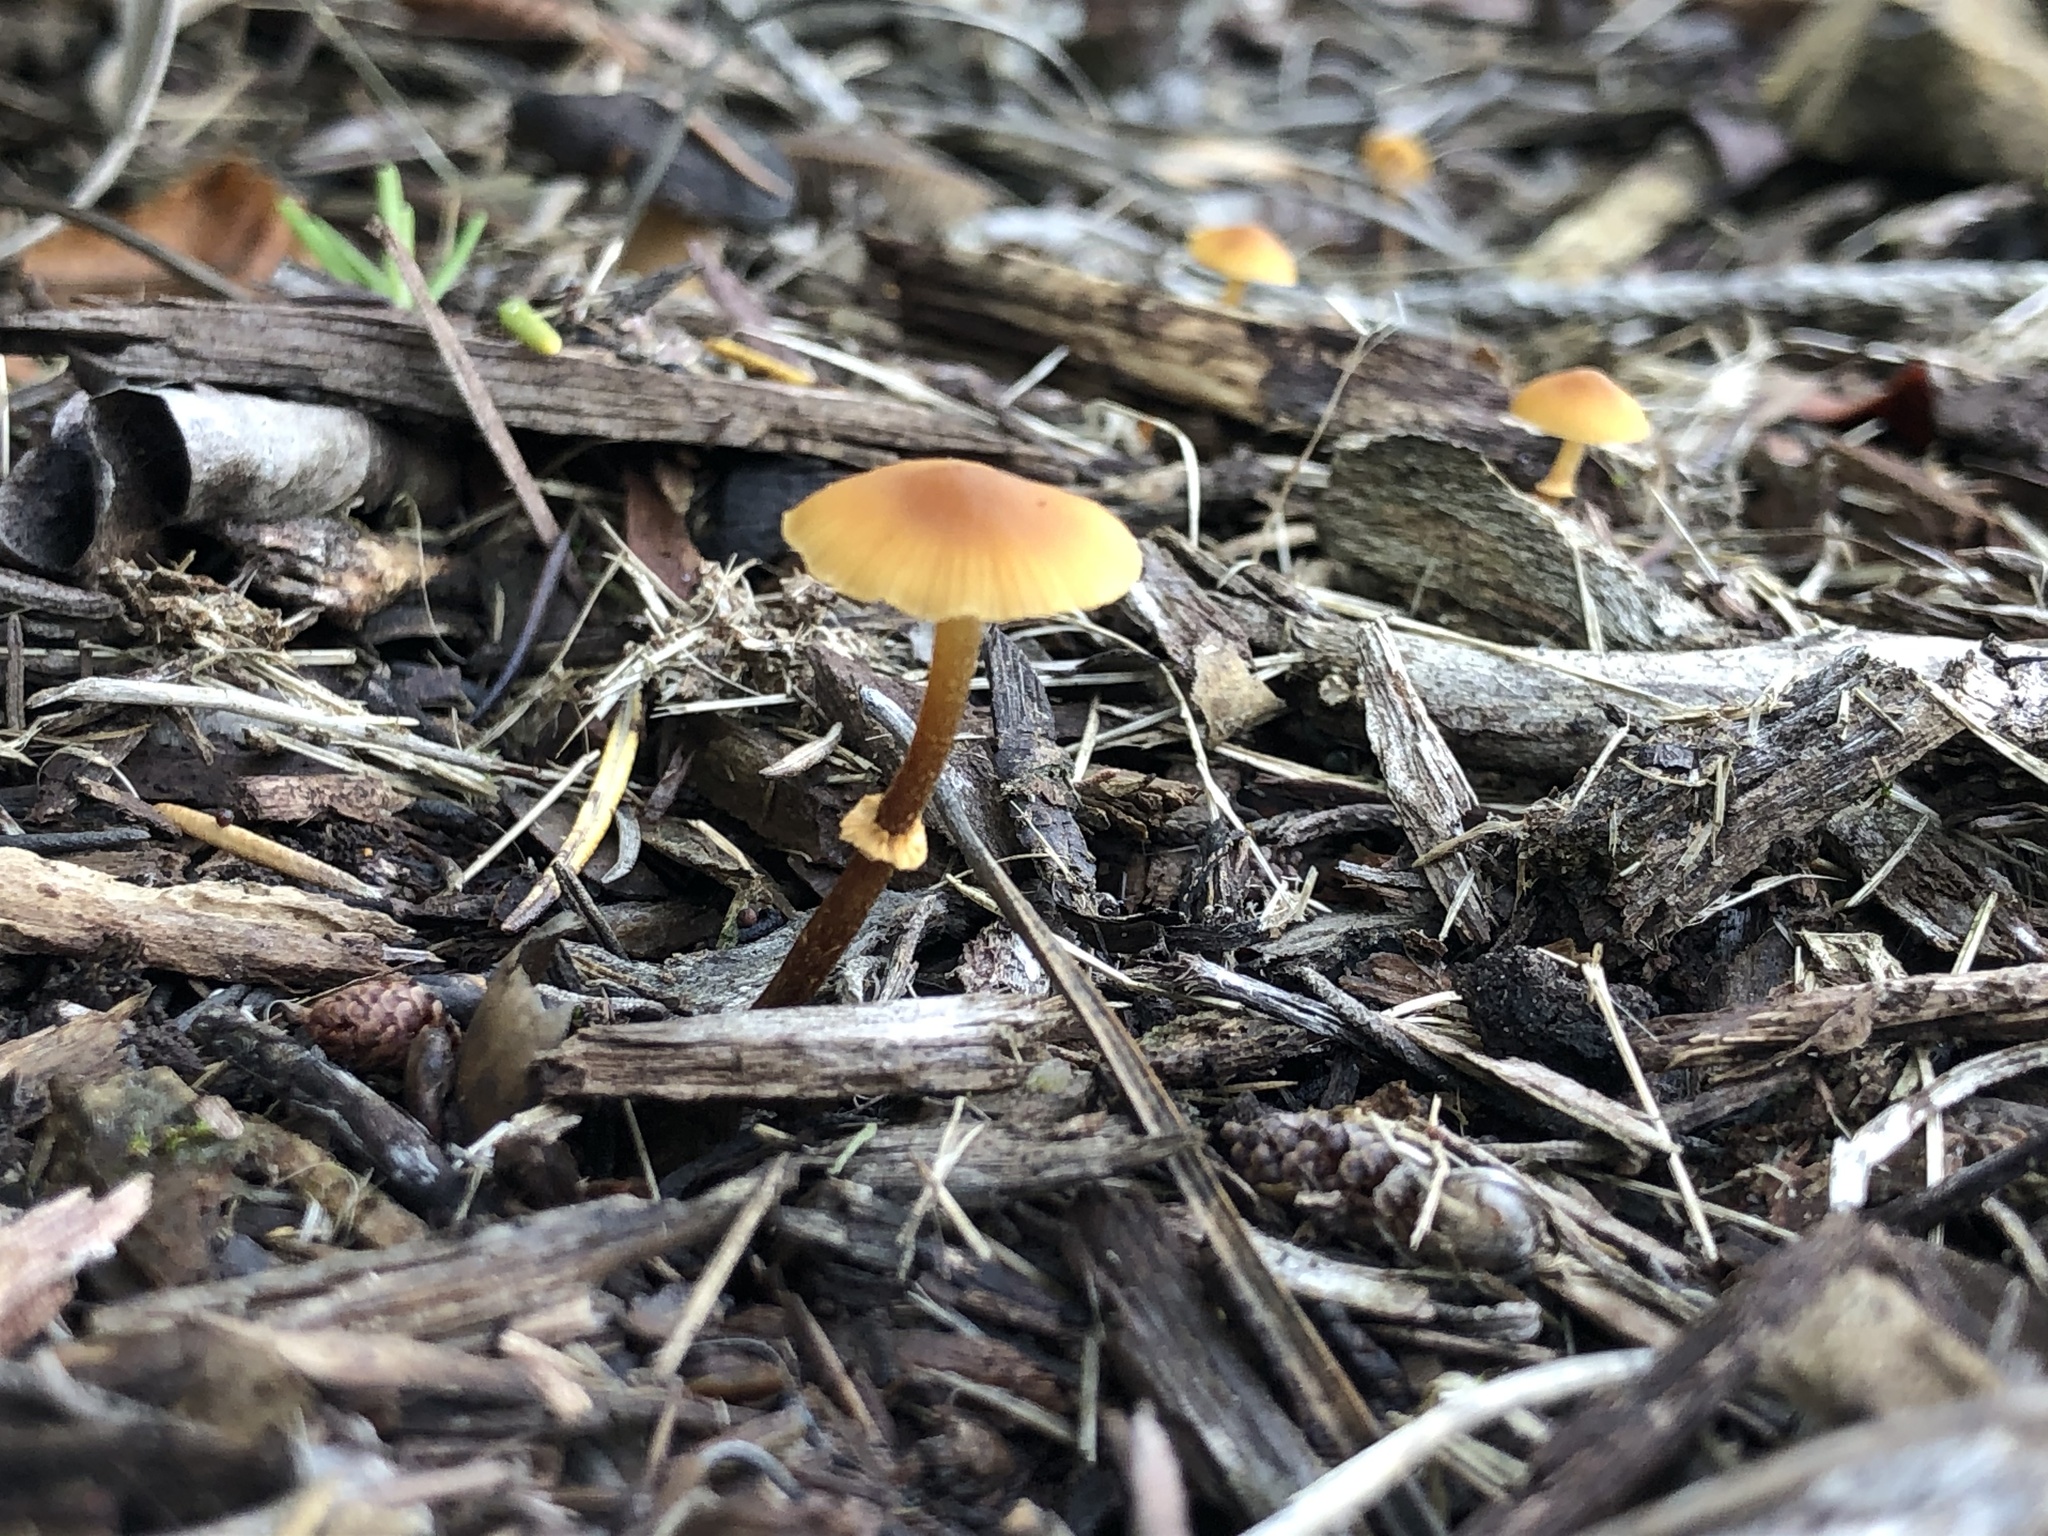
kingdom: Fungi
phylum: Basidiomycota
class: Agaricomycetes
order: Agaricales
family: Bolbitiaceae
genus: Conocybe
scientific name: Conocybe rugosa
